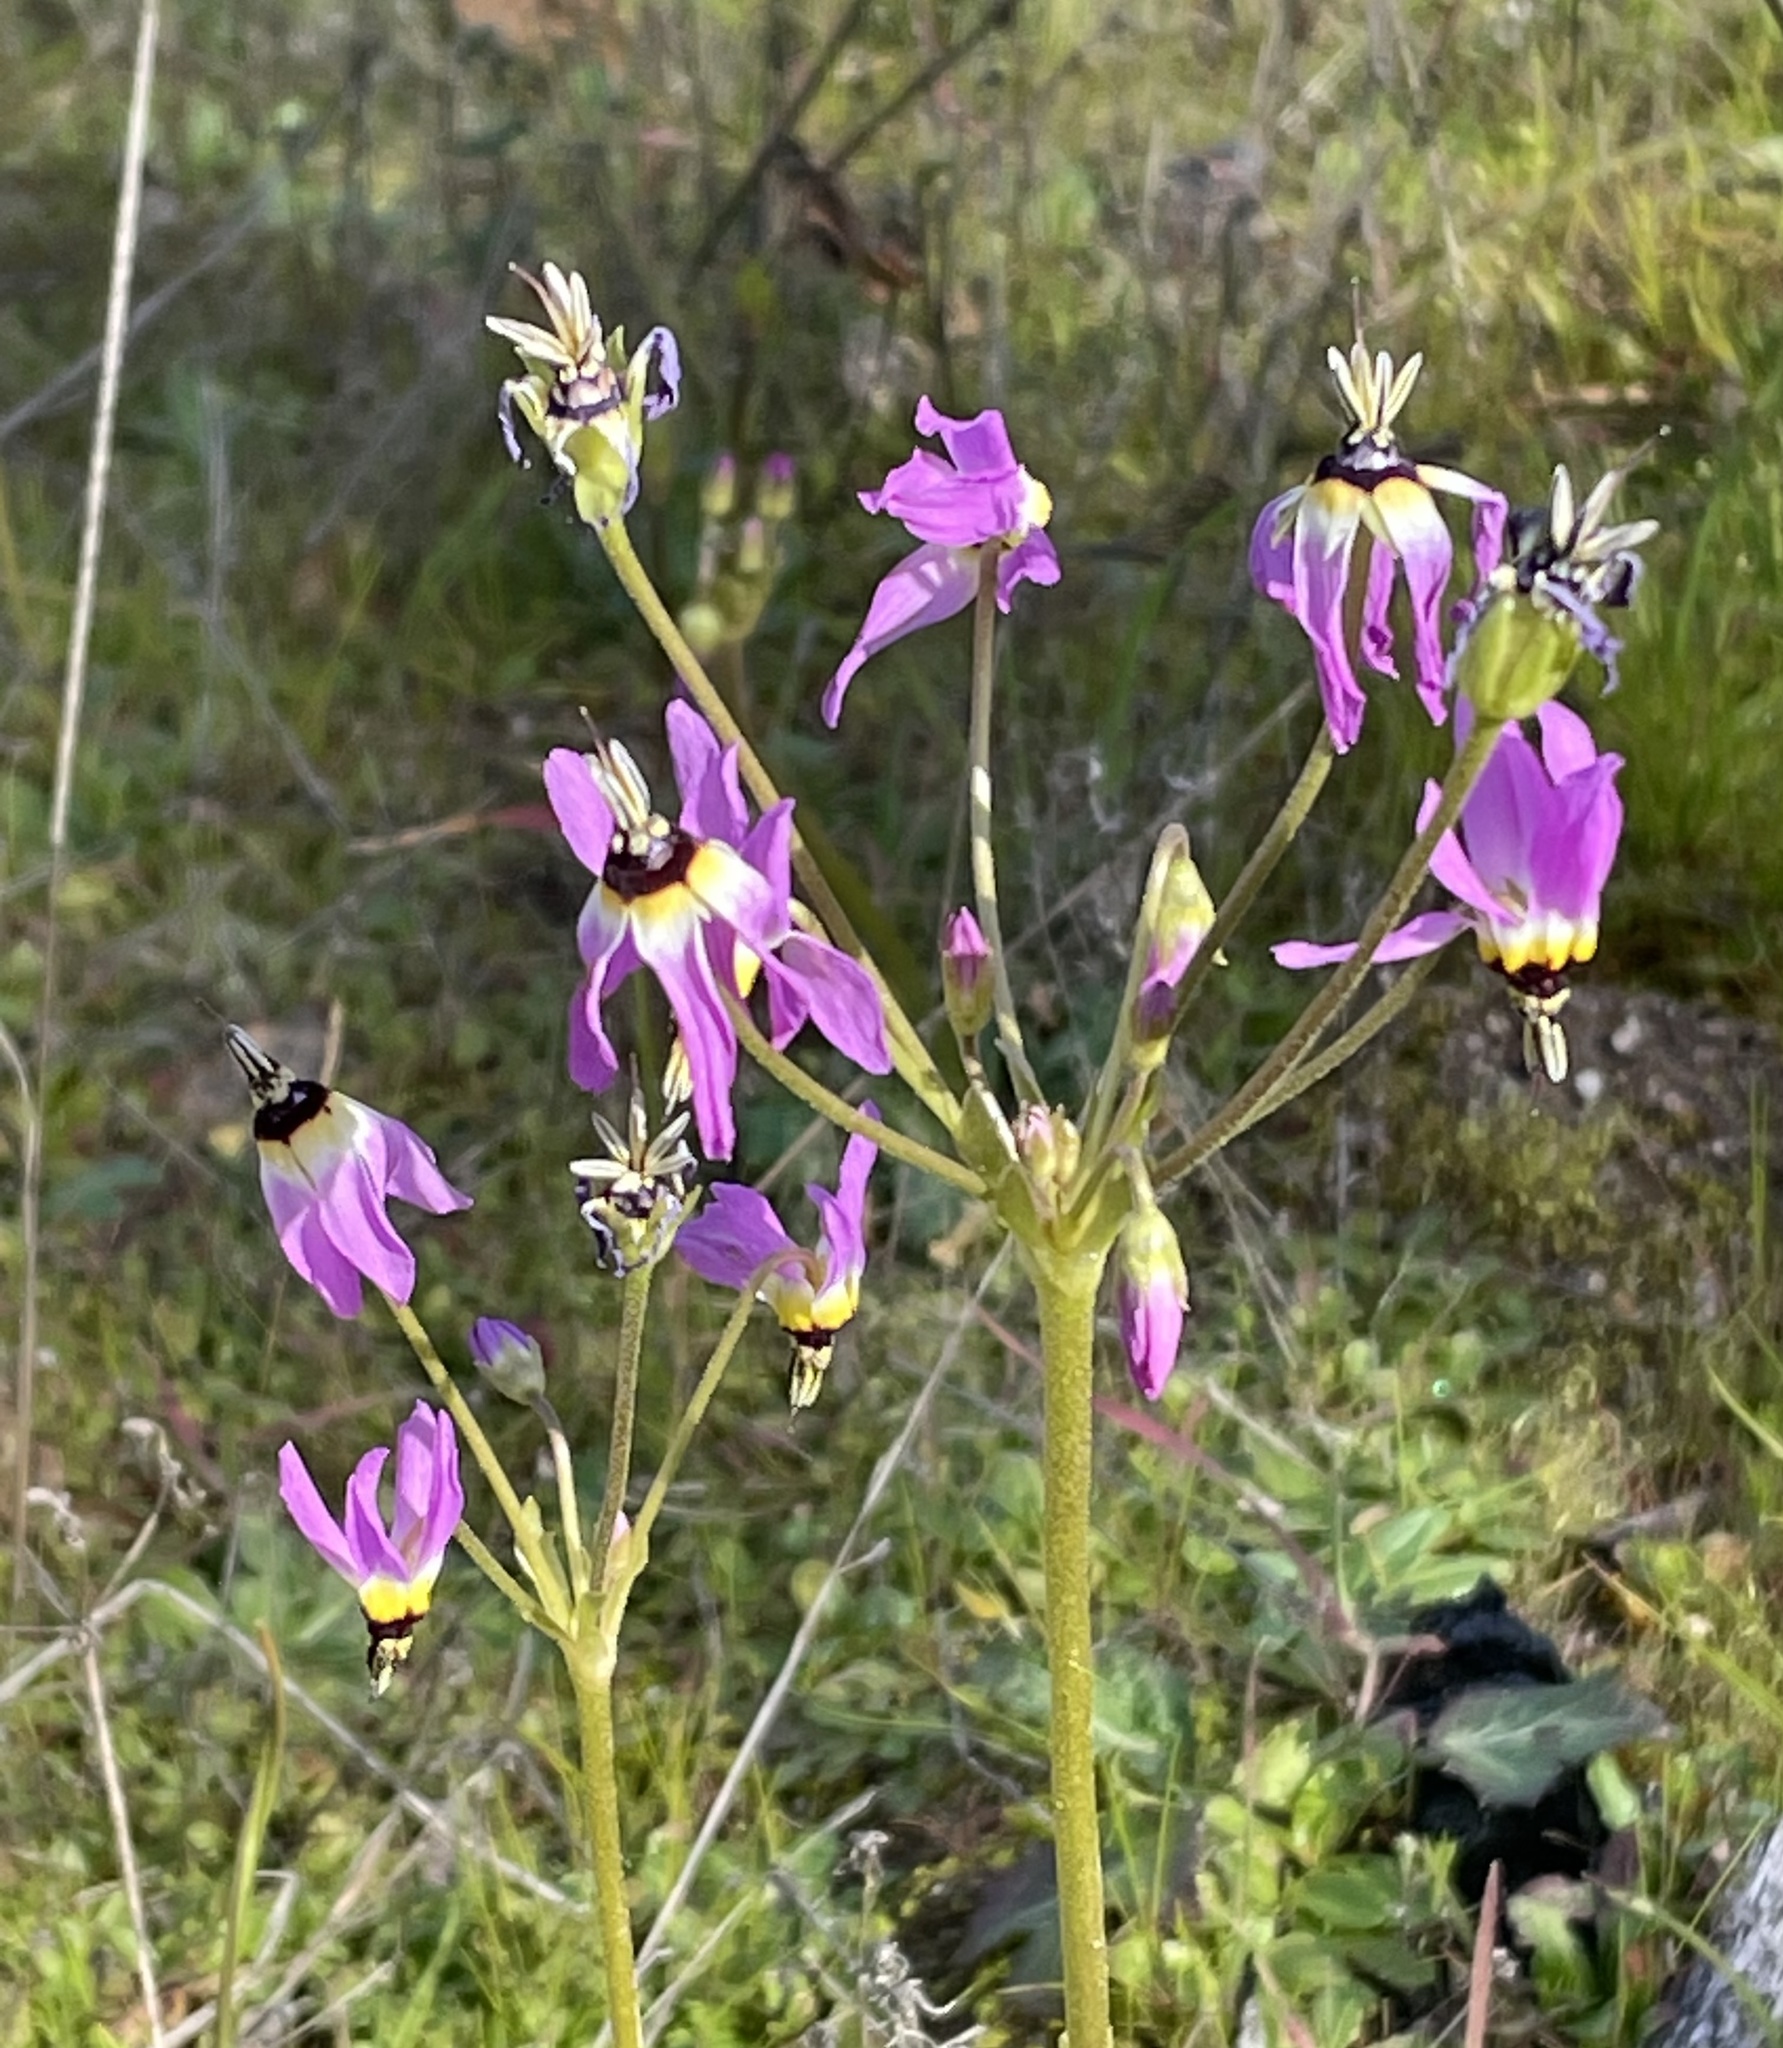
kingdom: Plantae
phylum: Tracheophyta
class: Magnoliopsida
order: Ericales
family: Primulaceae
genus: Dodecatheon
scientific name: Dodecatheon clevelandii
